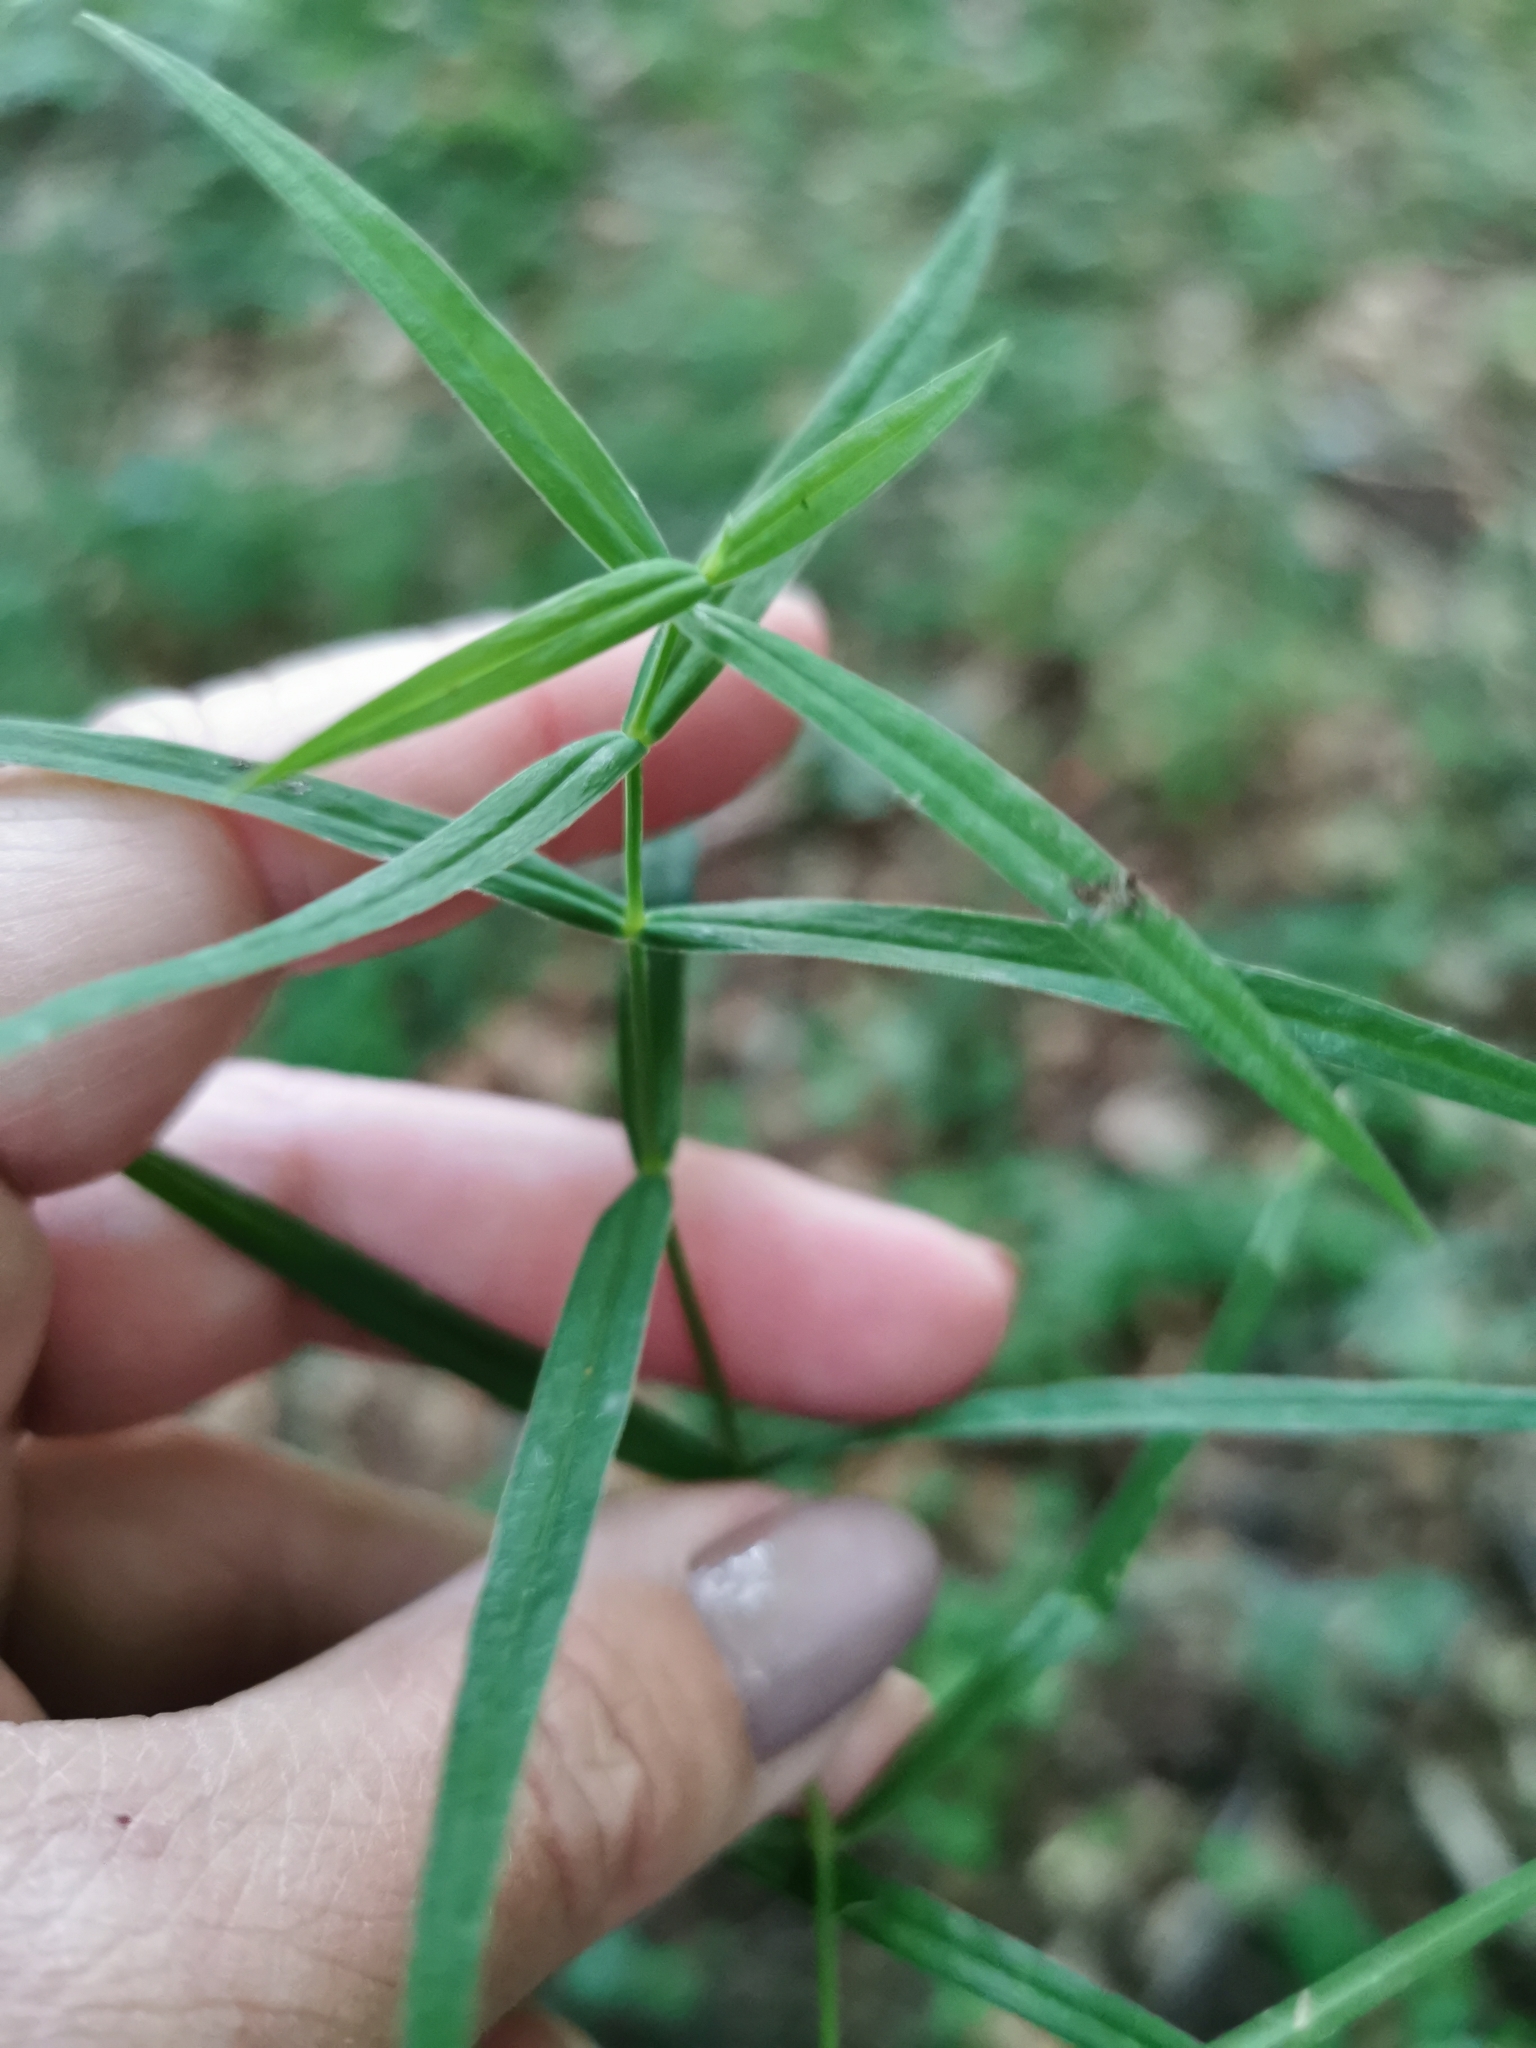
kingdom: Plantae
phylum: Tracheophyta
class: Magnoliopsida
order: Caryophyllales
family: Caryophyllaceae
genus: Rabelera
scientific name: Rabelera holostea
